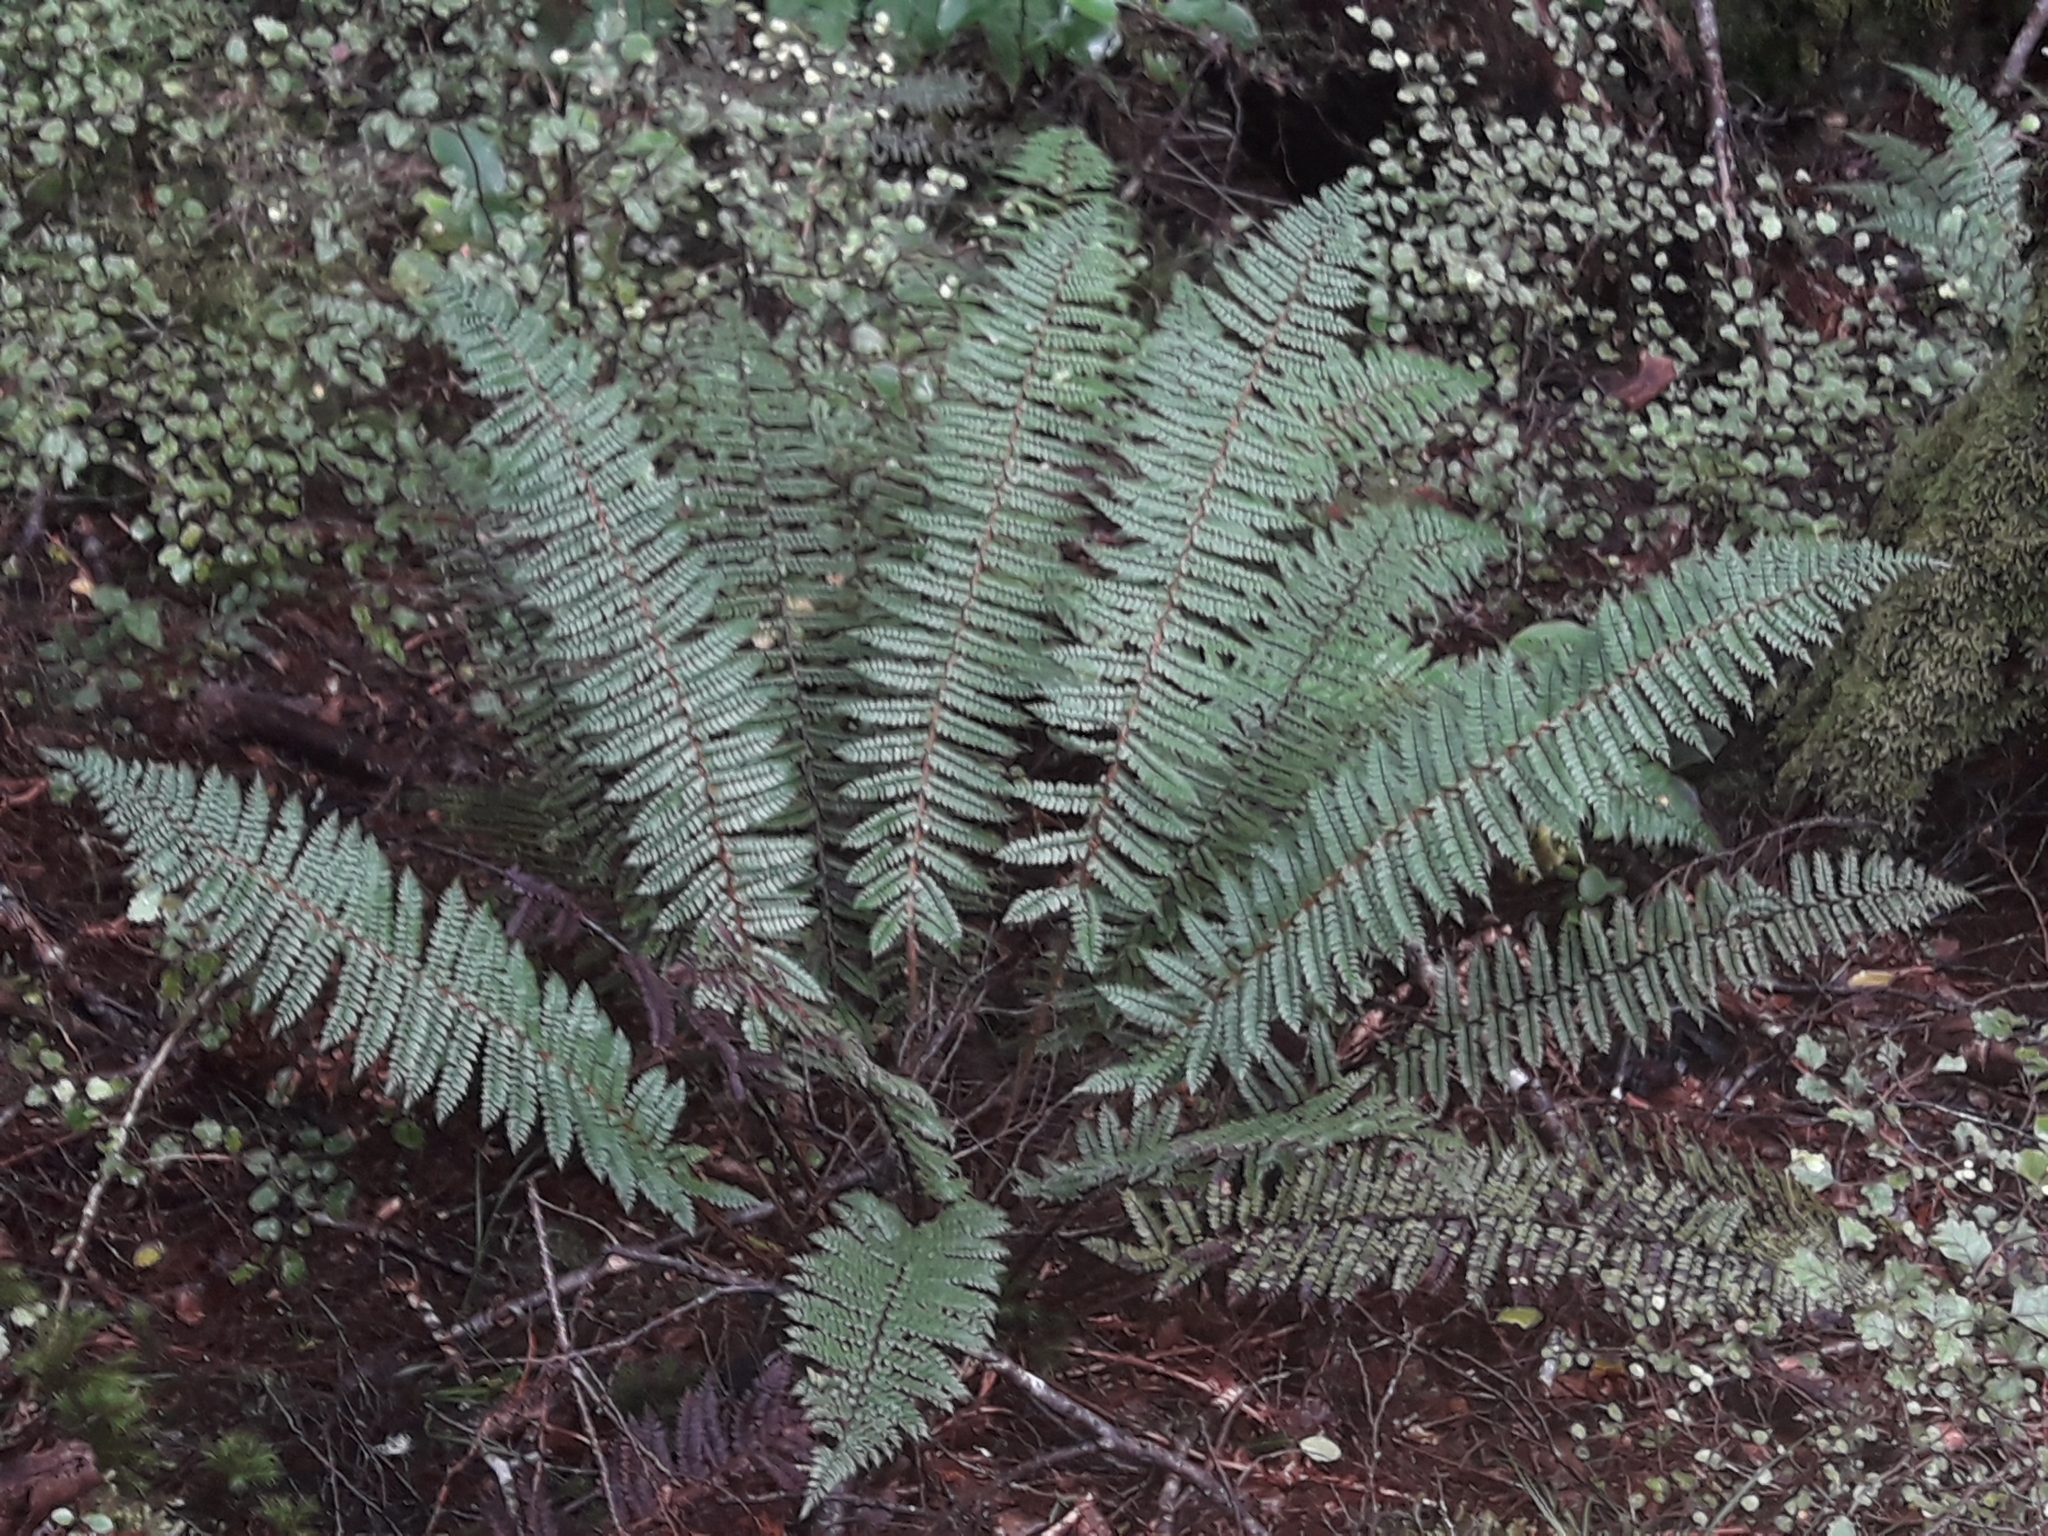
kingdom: Plantae
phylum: Tracheophyta
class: Polypodiopsida
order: Polypodiales
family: Dryopteridaceae
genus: Polystichum
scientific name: Polystichum vestitum
